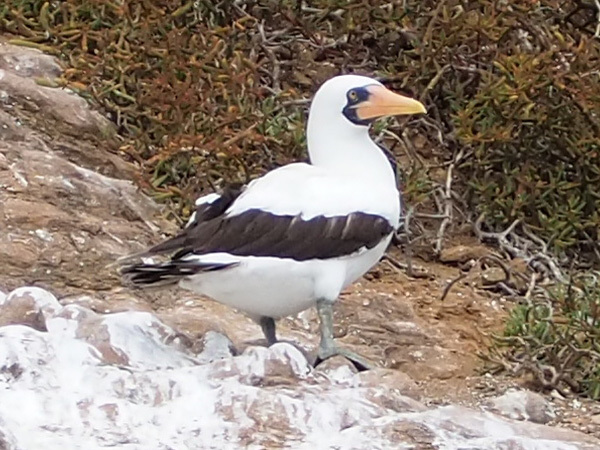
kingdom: Animalia
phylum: Chordata
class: Aves
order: Suliformes
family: Sulidae
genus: Sula
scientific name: Sula granti
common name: Nazca booby
